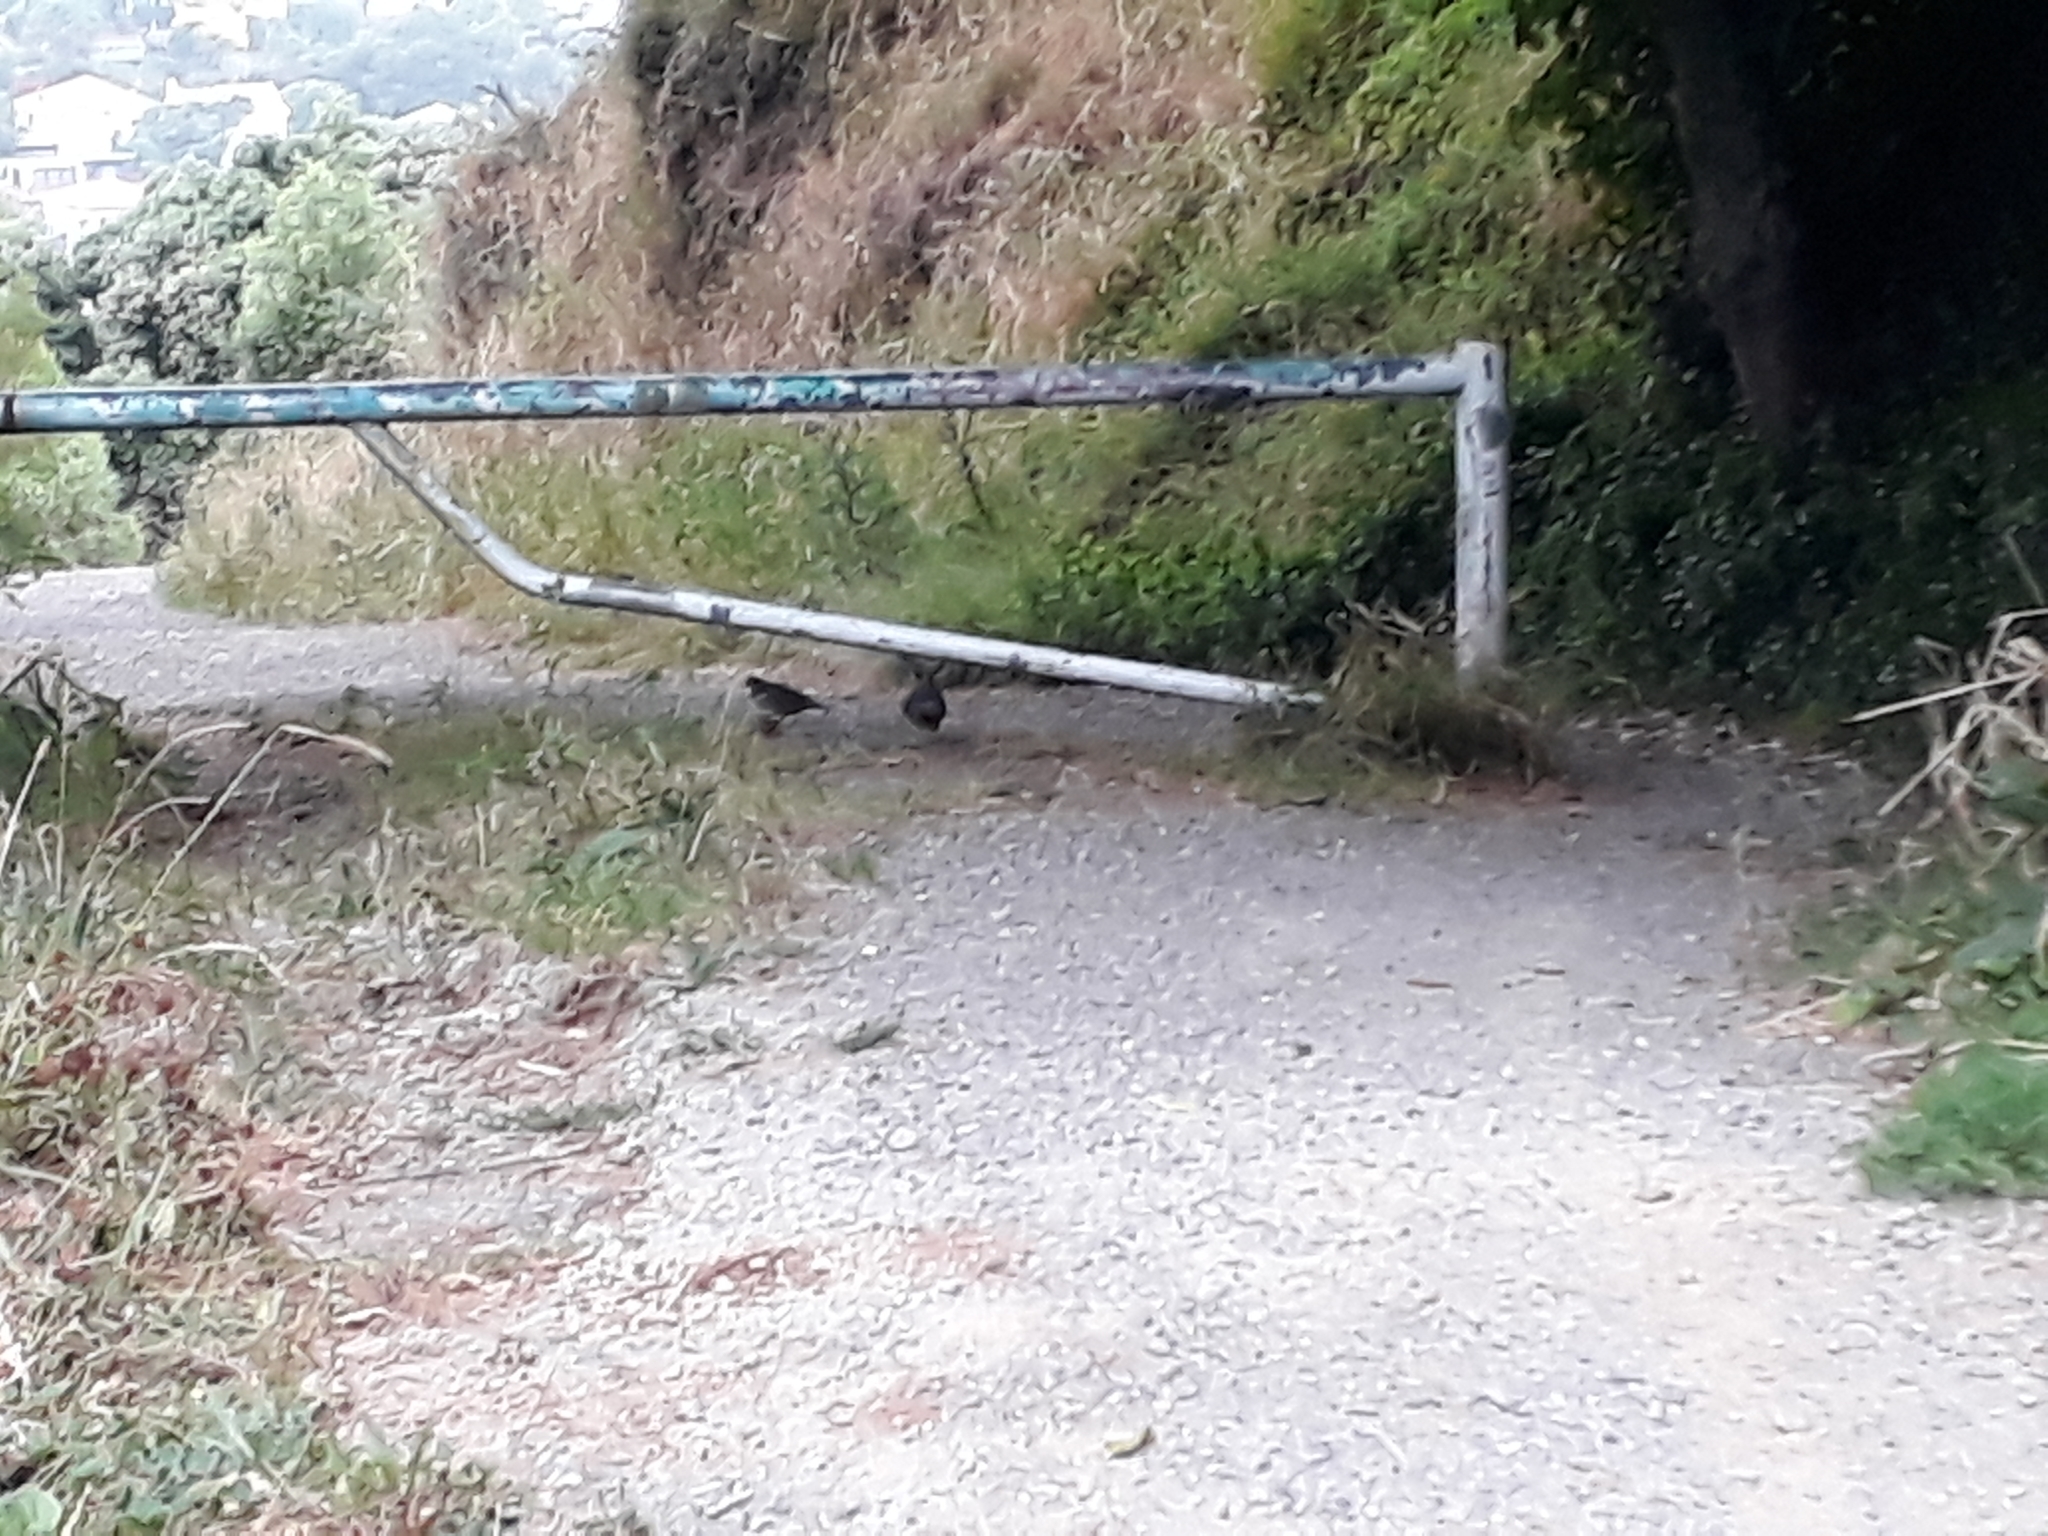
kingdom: Animalia
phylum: Chordata
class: Aves
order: Galliformes
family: Odontophoridae
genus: Callipepla
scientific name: Callipepla californica
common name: California quail
